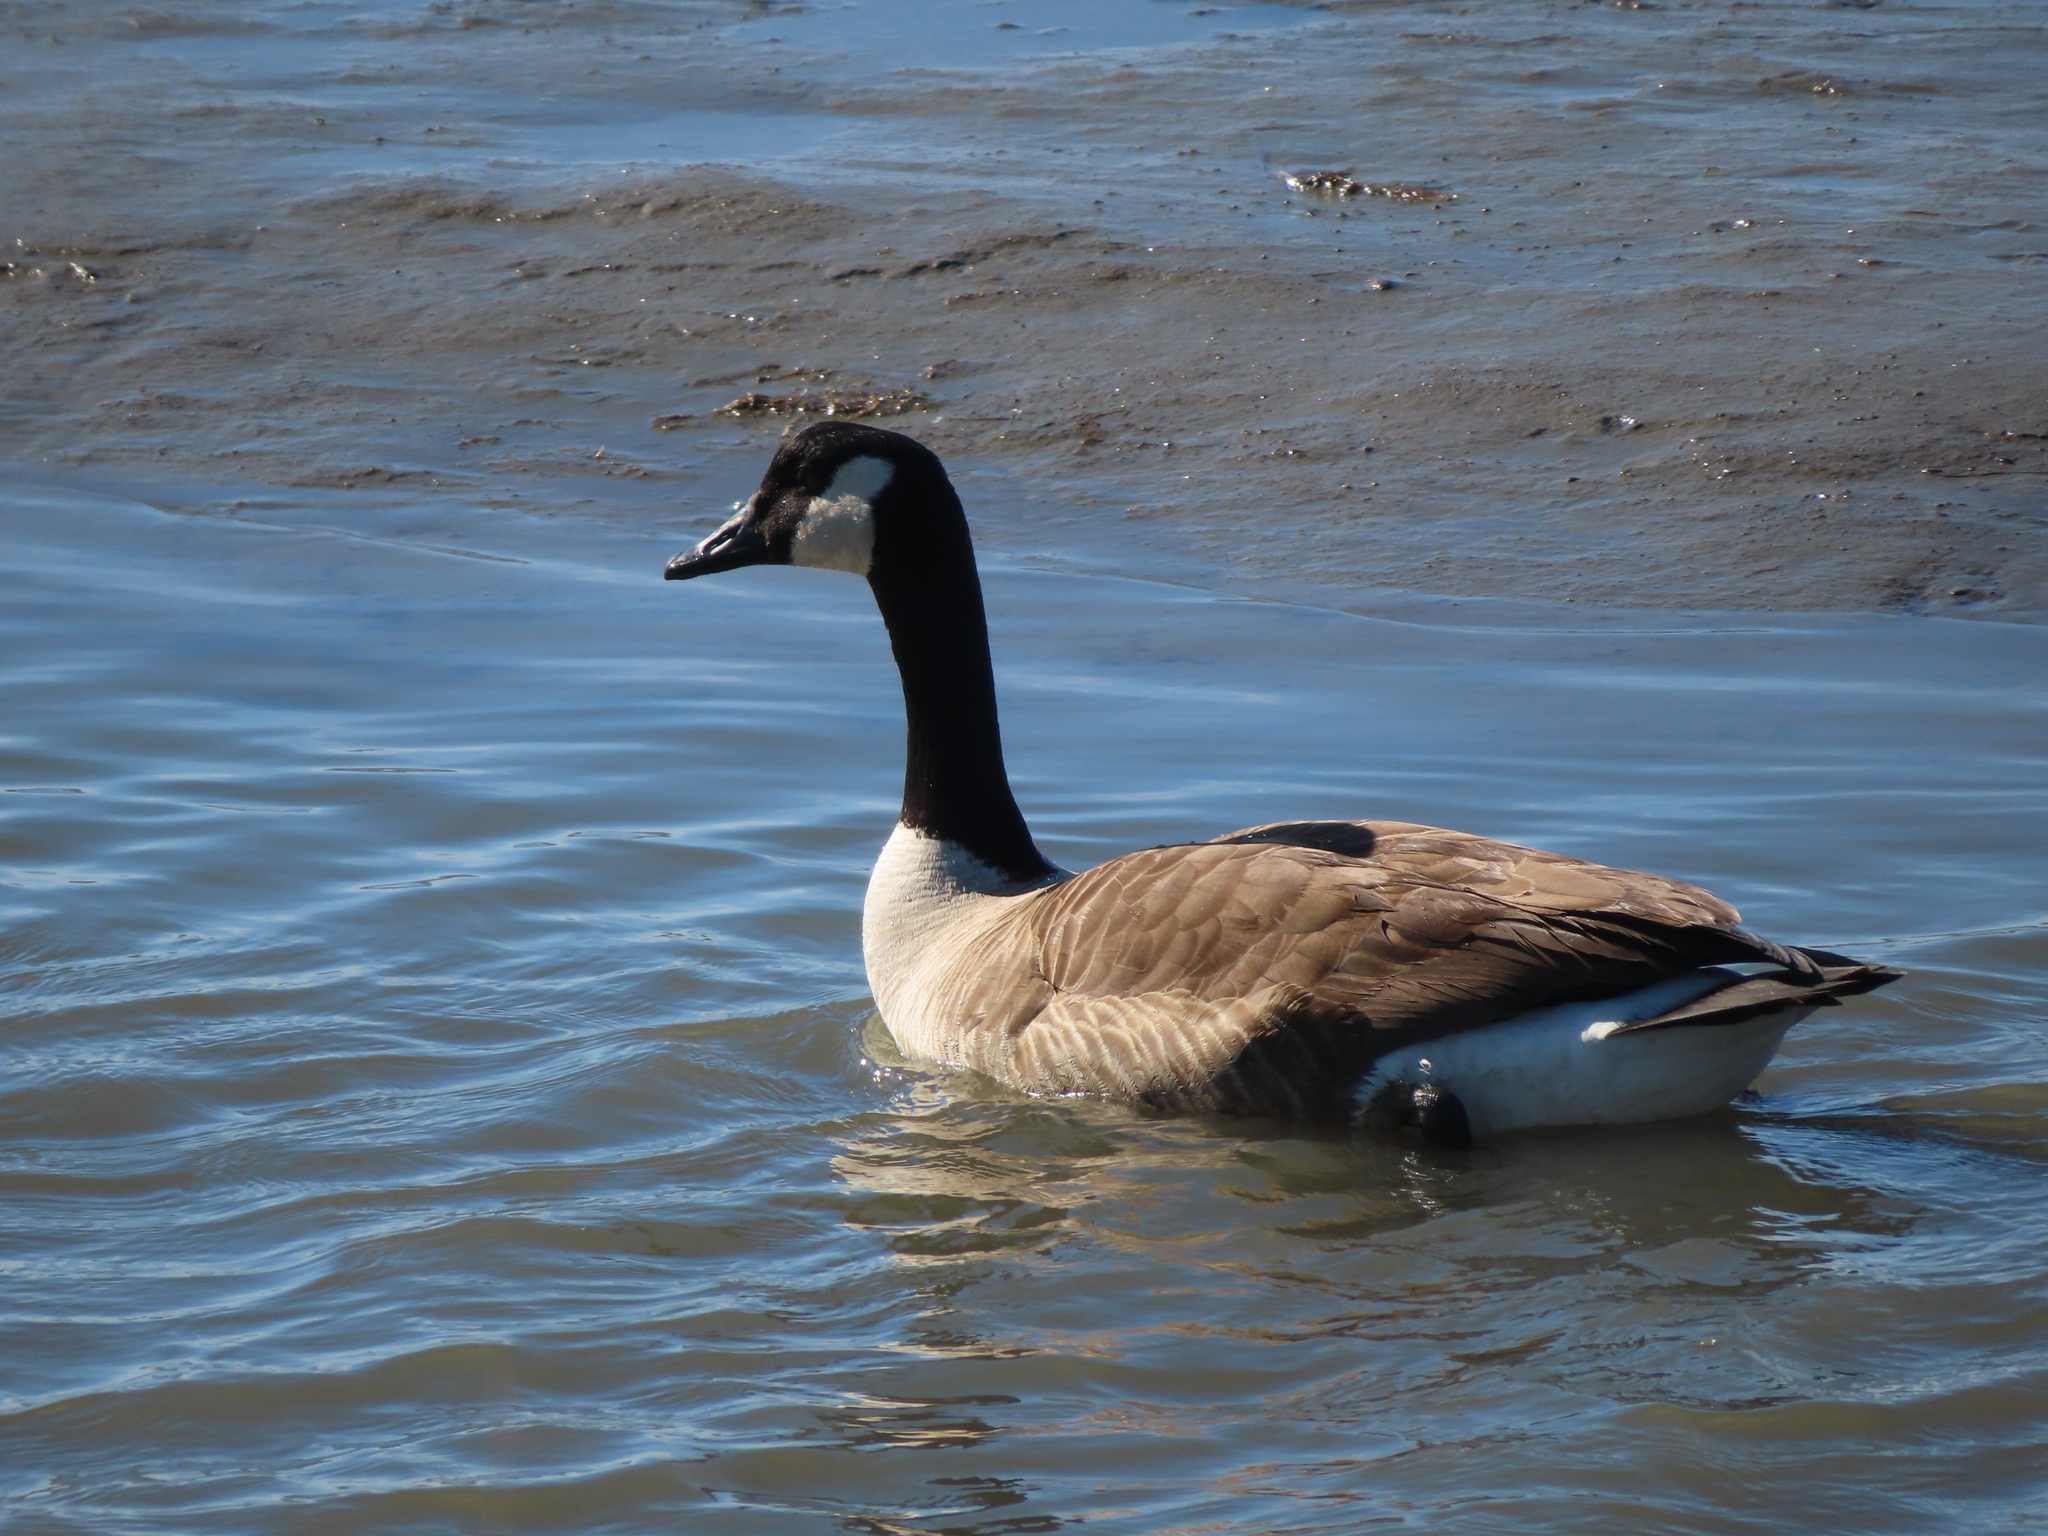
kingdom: Animalia
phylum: Chordata
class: Aves
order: Anseriformes
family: Anatidae
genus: Branta
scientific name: Branta canadensis
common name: Canada goose
